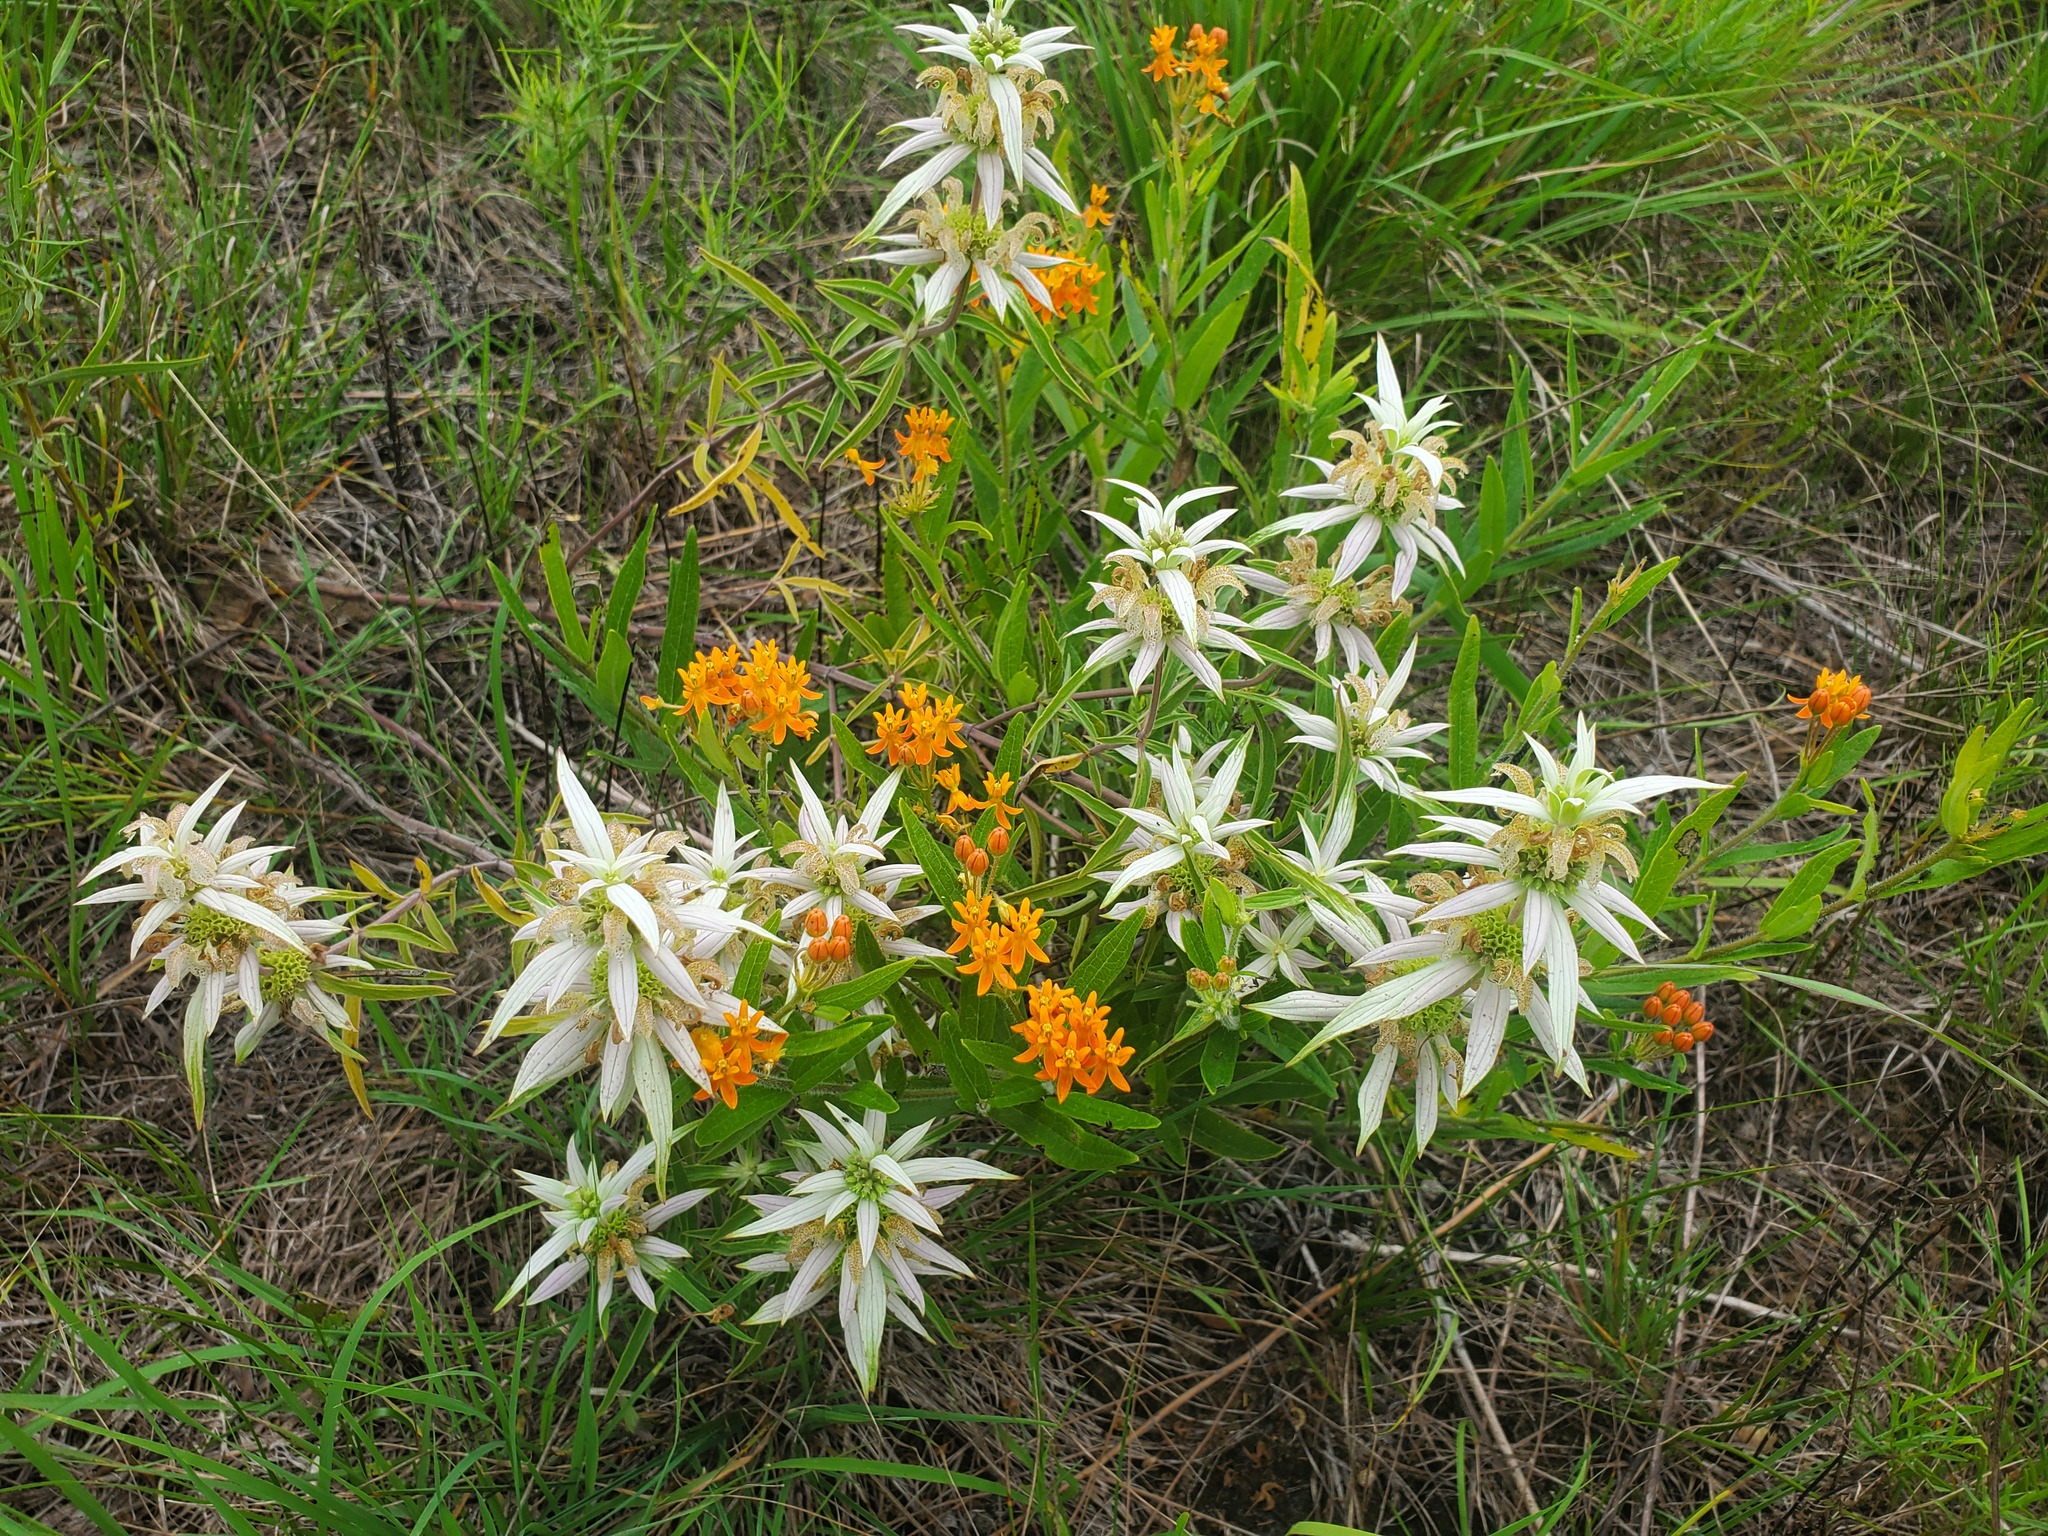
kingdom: Plantae
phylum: Tracheophyta
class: Magnoliopsida
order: Gentianales
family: Apocynaceae
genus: Asclepias
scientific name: Asclepias tuberosa
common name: Butterfly milkweed
